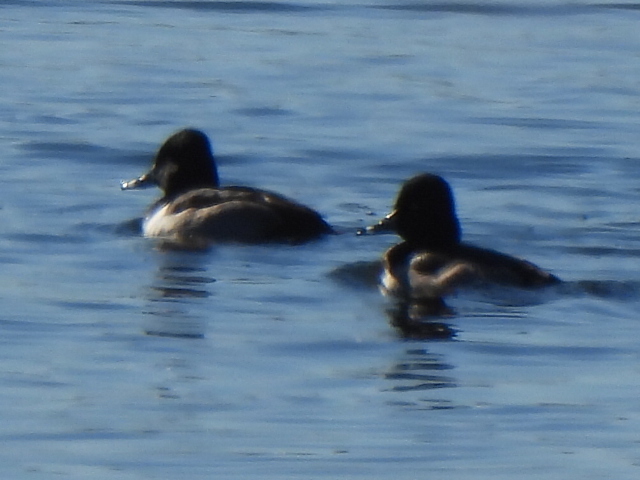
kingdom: Animalia
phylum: Chordata
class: Aves
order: Anseriformes
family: Anatidae
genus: Aythya
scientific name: Aythya collaris
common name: Ring-necked duck
